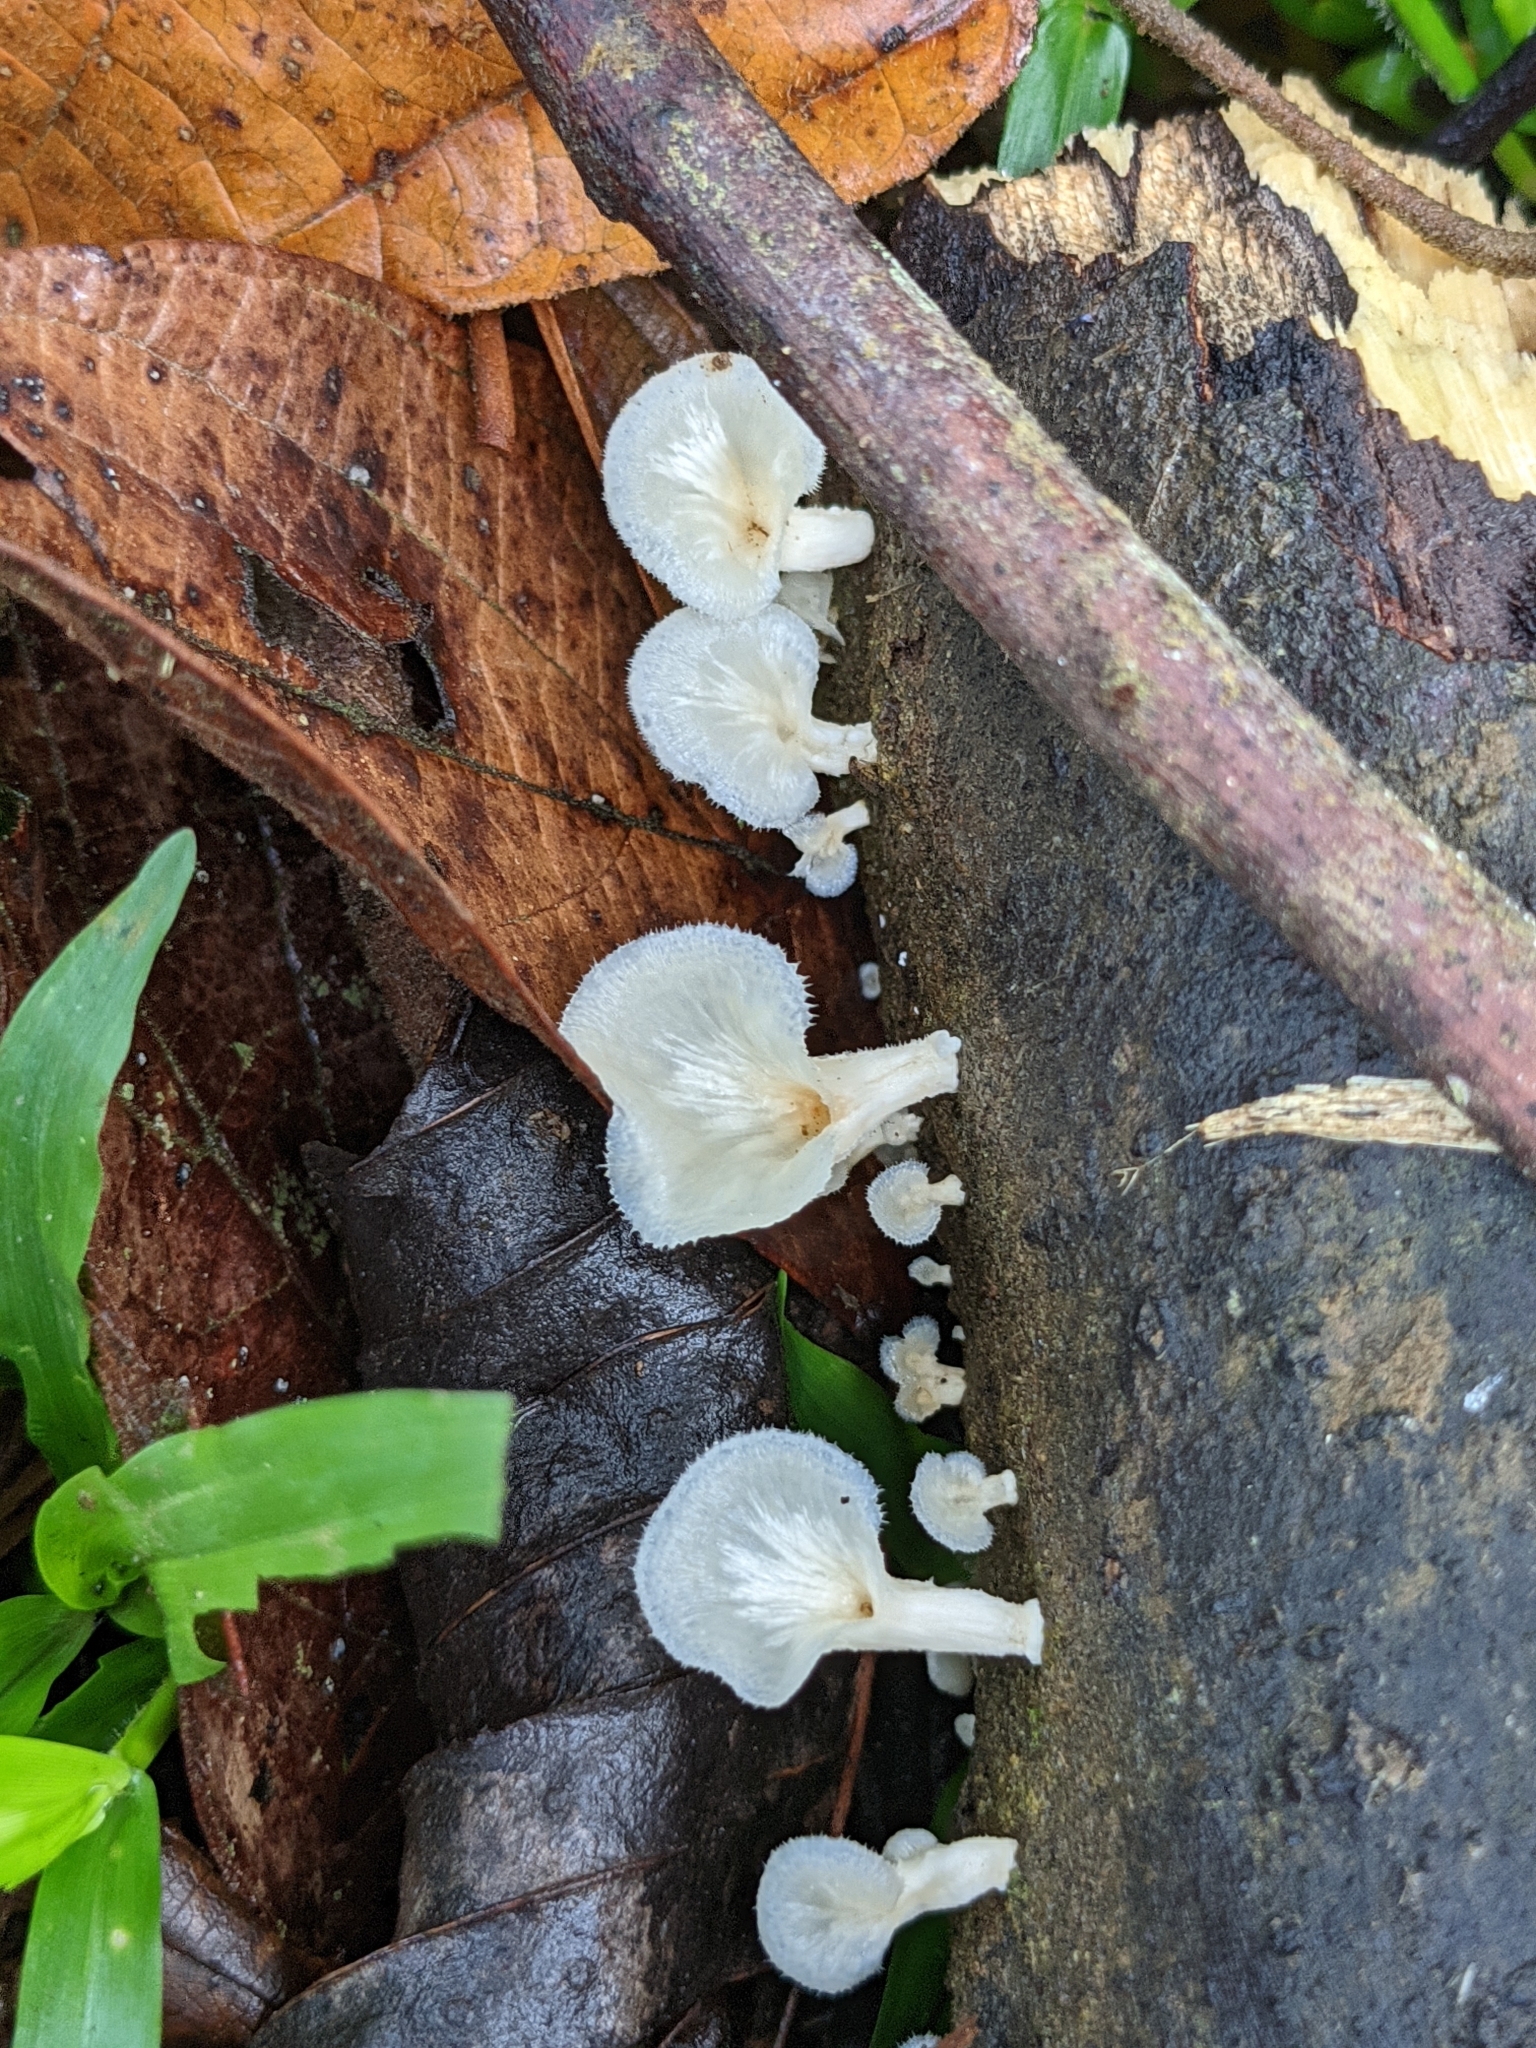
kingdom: Fungi
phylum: Basidiomycota
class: Agaricomycetes
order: Polyporales
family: Polyporaceae
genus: Favolus
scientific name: Favolus tenuiculus
